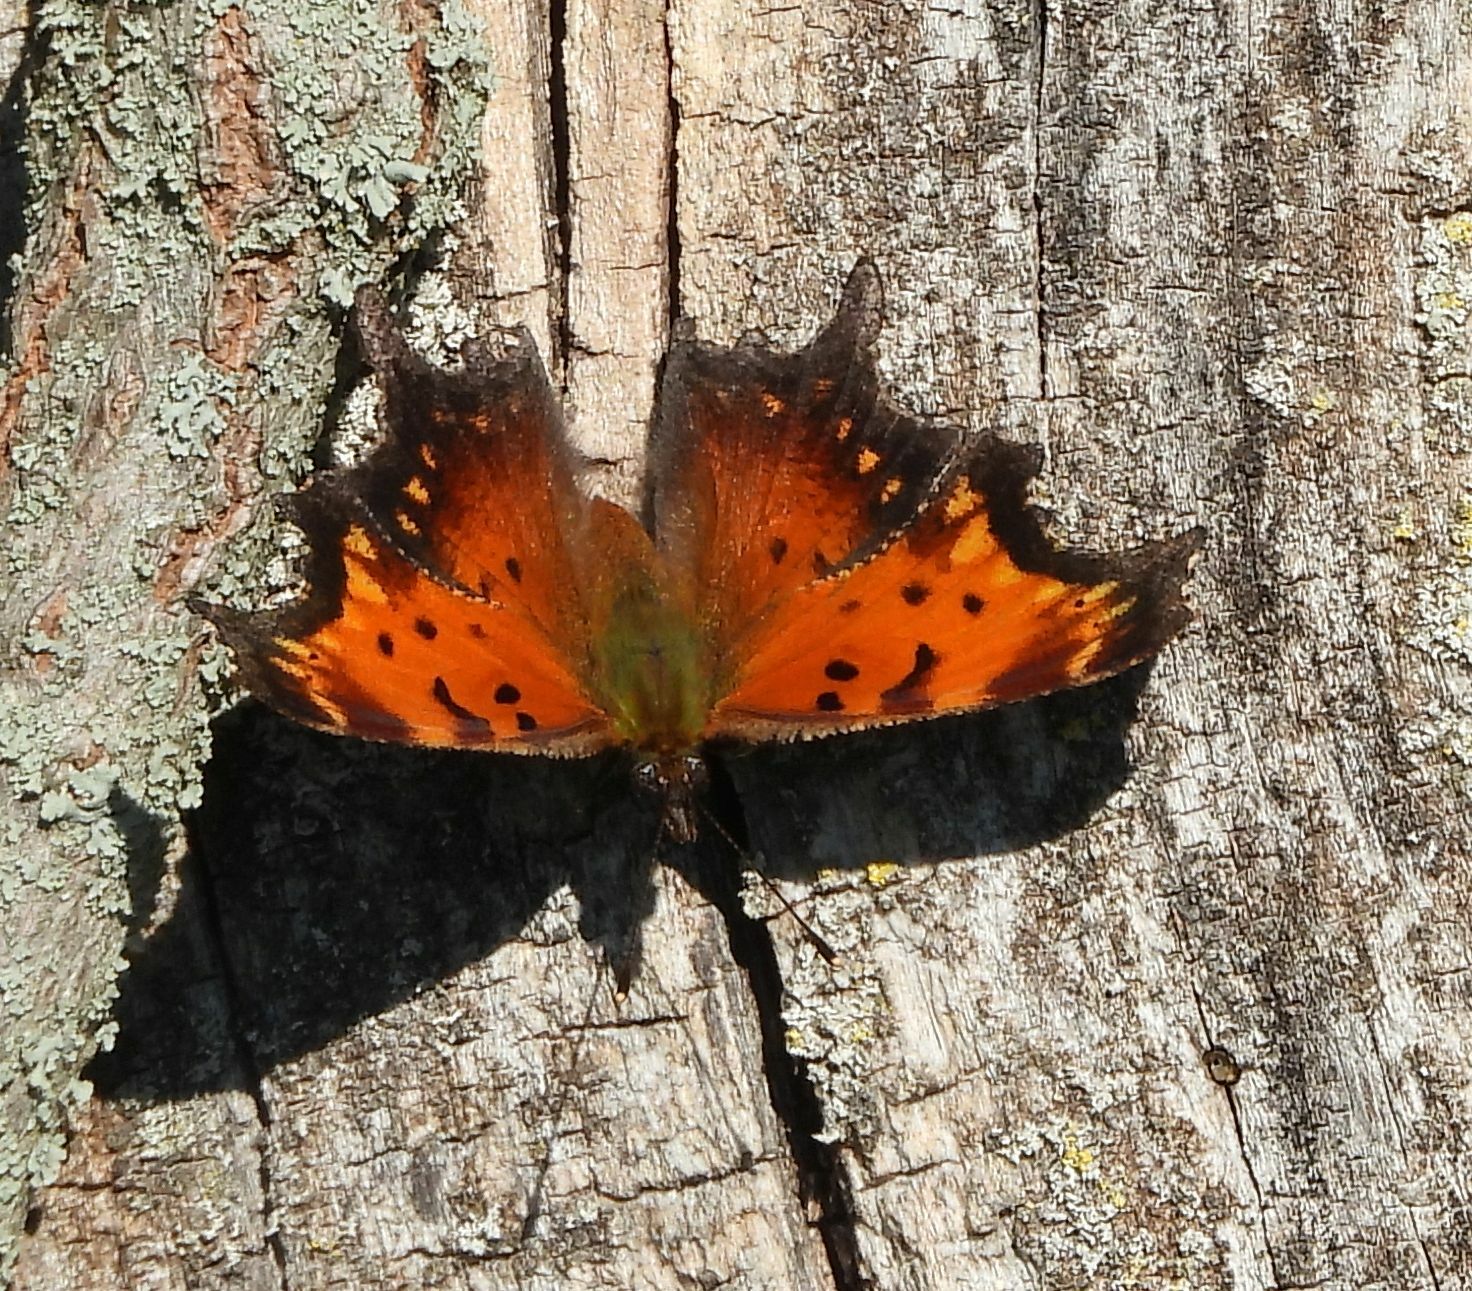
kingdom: Animalia
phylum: Arthropoda
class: Insecta
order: Lepidoptera
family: Nymphalidae
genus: Polygonia
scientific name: Polygonia progne
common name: Gray comma
